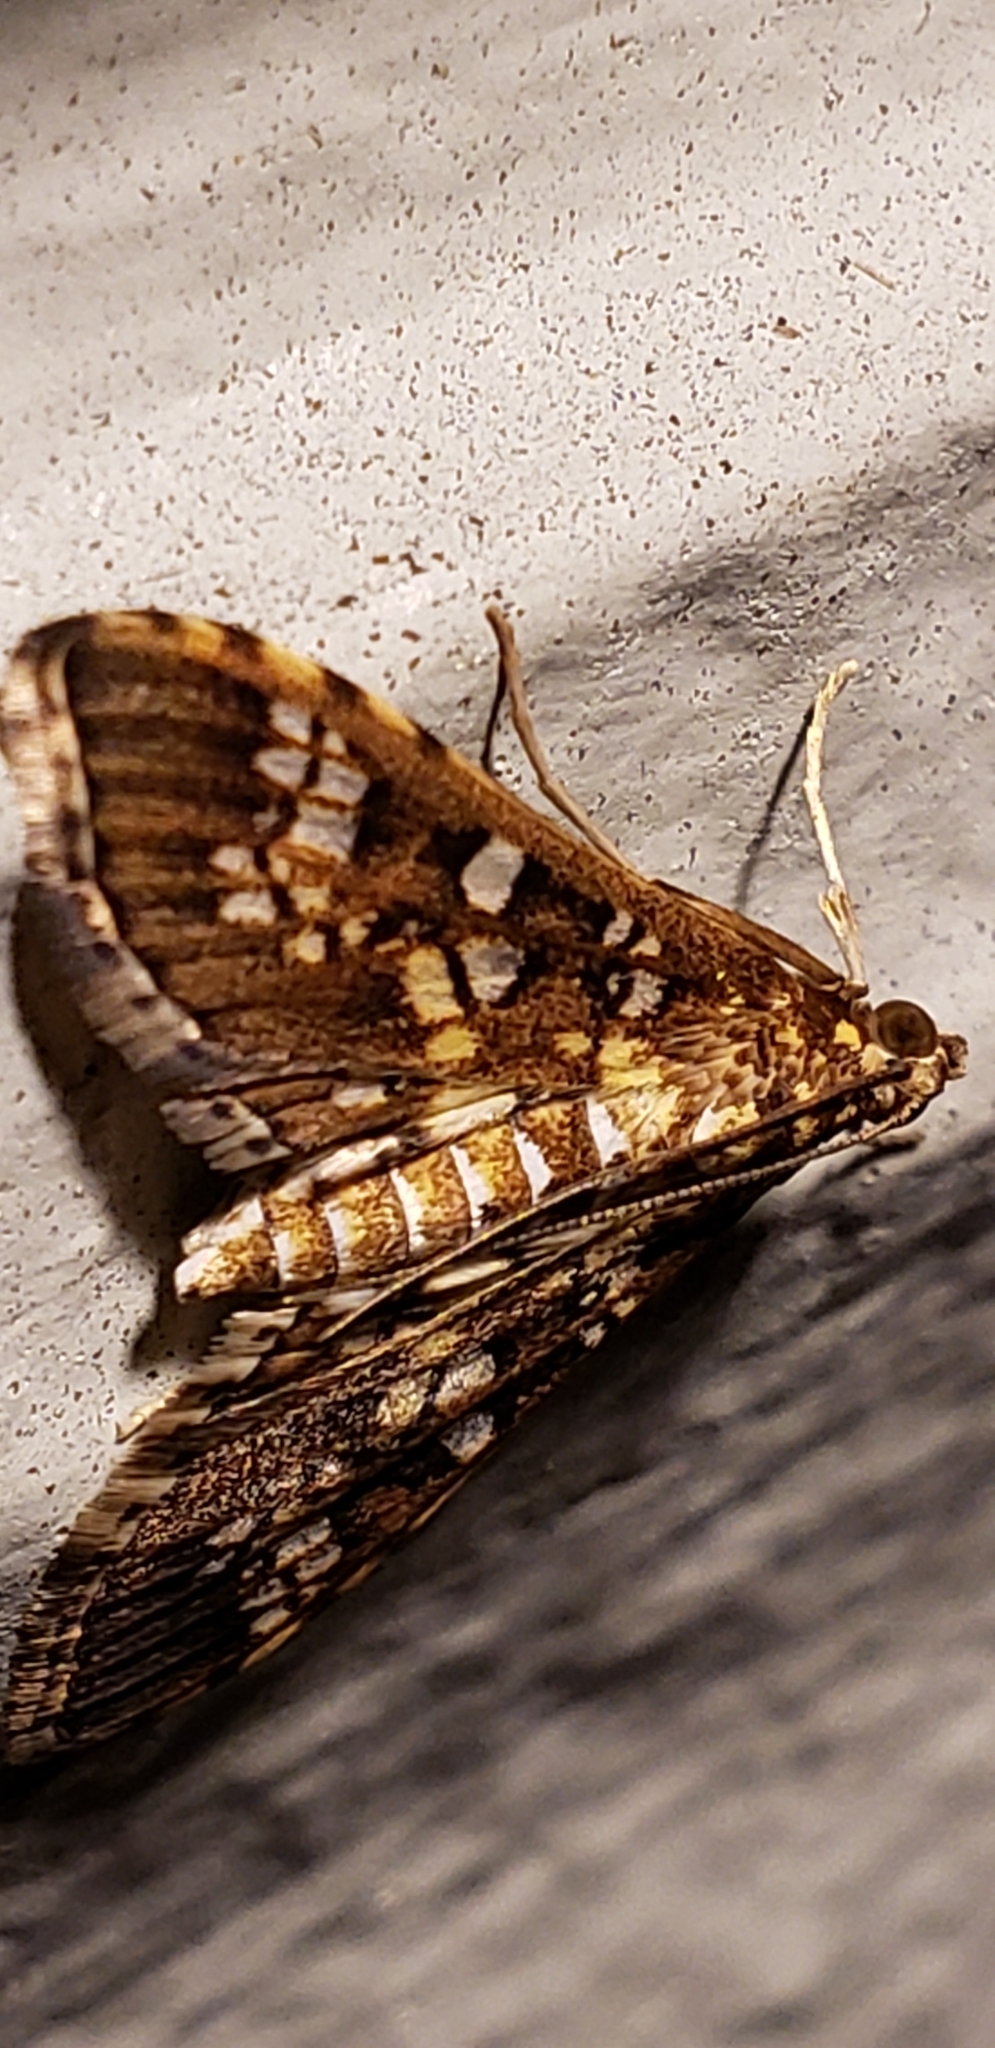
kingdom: Animalia
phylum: Arthropoda
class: Insecta
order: Lepidoptera
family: Crambidae
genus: Samea
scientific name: Samea ecclesialis
